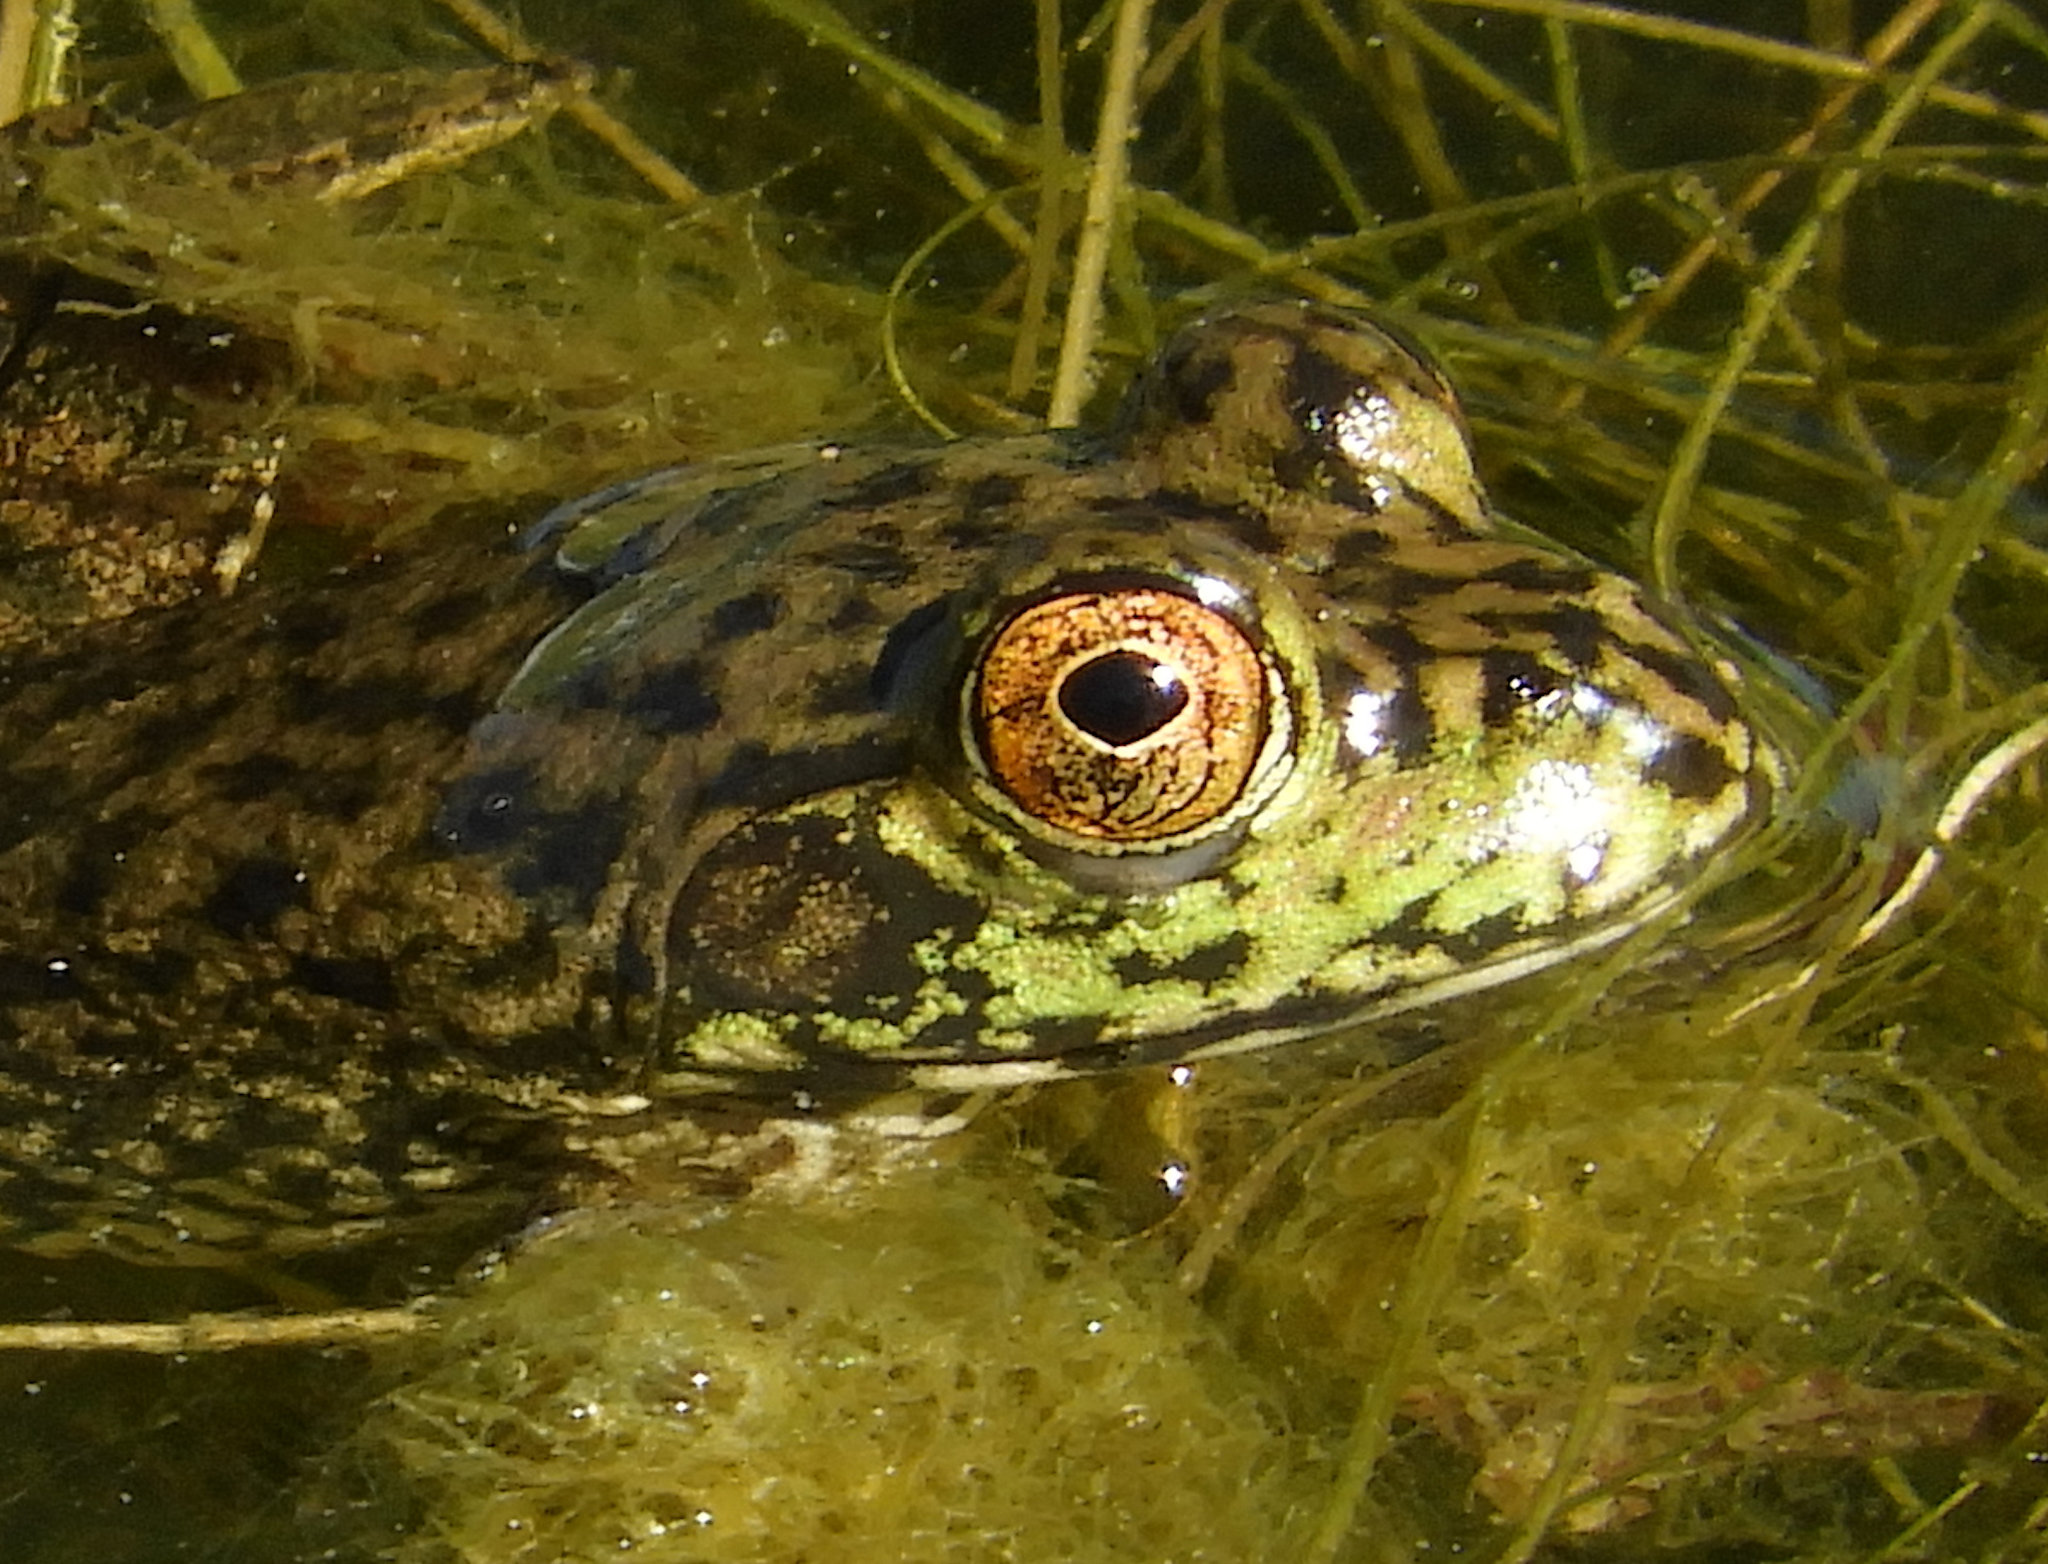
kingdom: Animalia
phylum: Chordata
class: Amphibia
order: Anura
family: Ranidae
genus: Lithobates
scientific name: Lithobates catesbeianus
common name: American bullfrog
